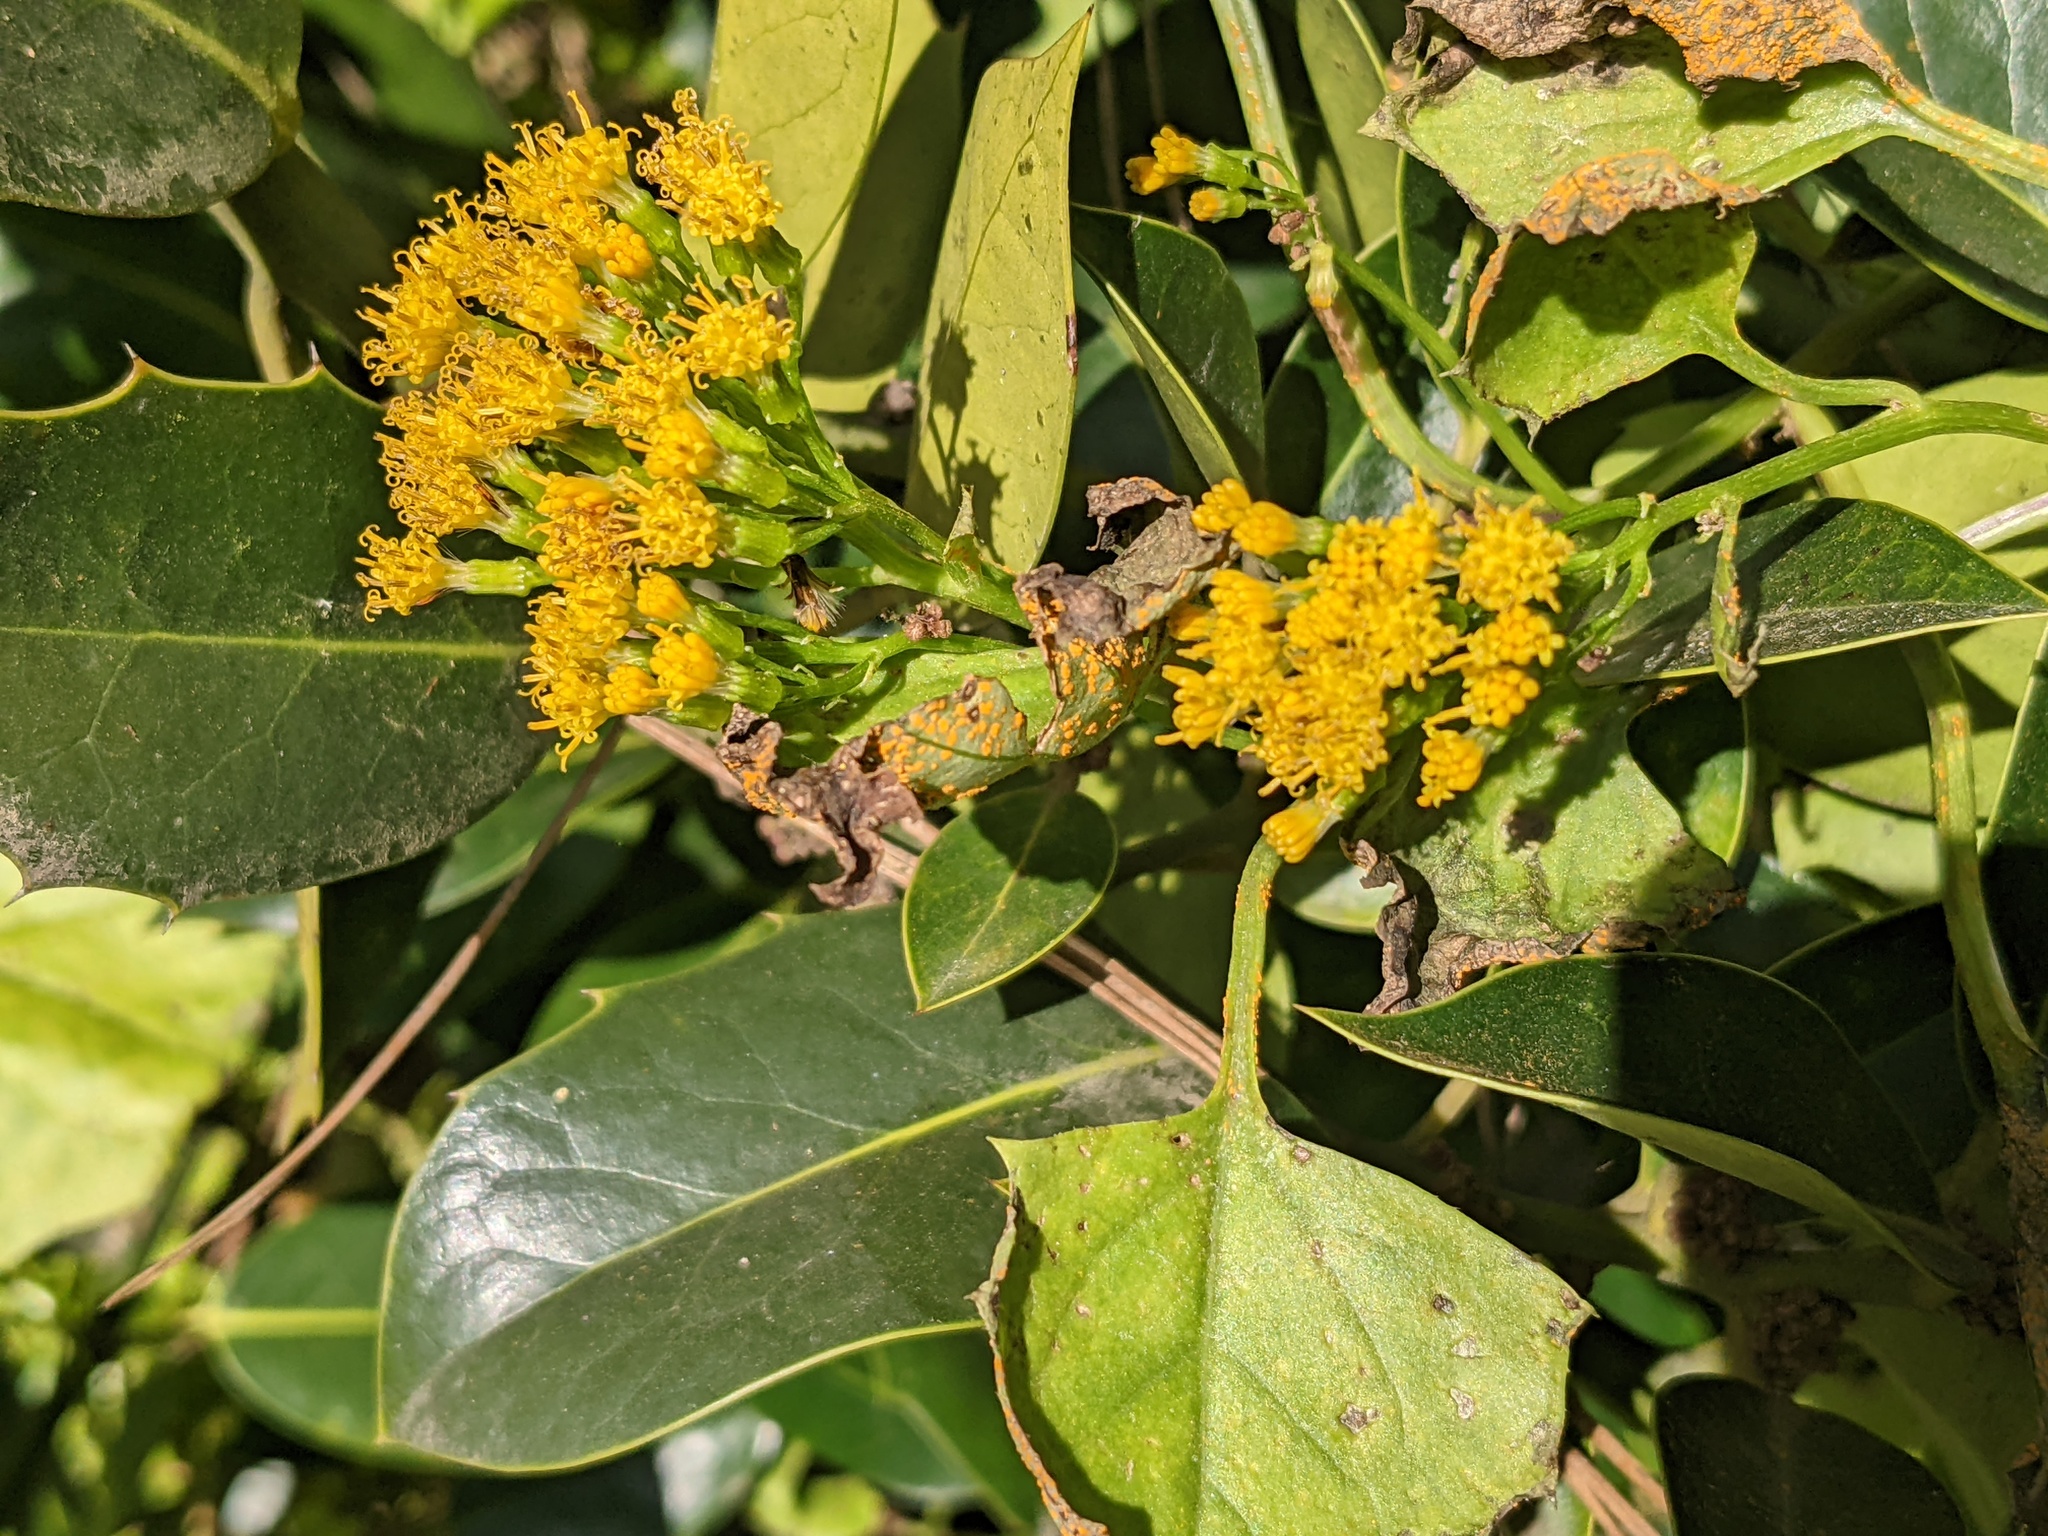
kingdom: Plantae
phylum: Tracheophyta
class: Magnoliopsida
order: Asterales
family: Asteraceae
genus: Delairea
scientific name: Delairea odorata
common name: Cape-ivy
